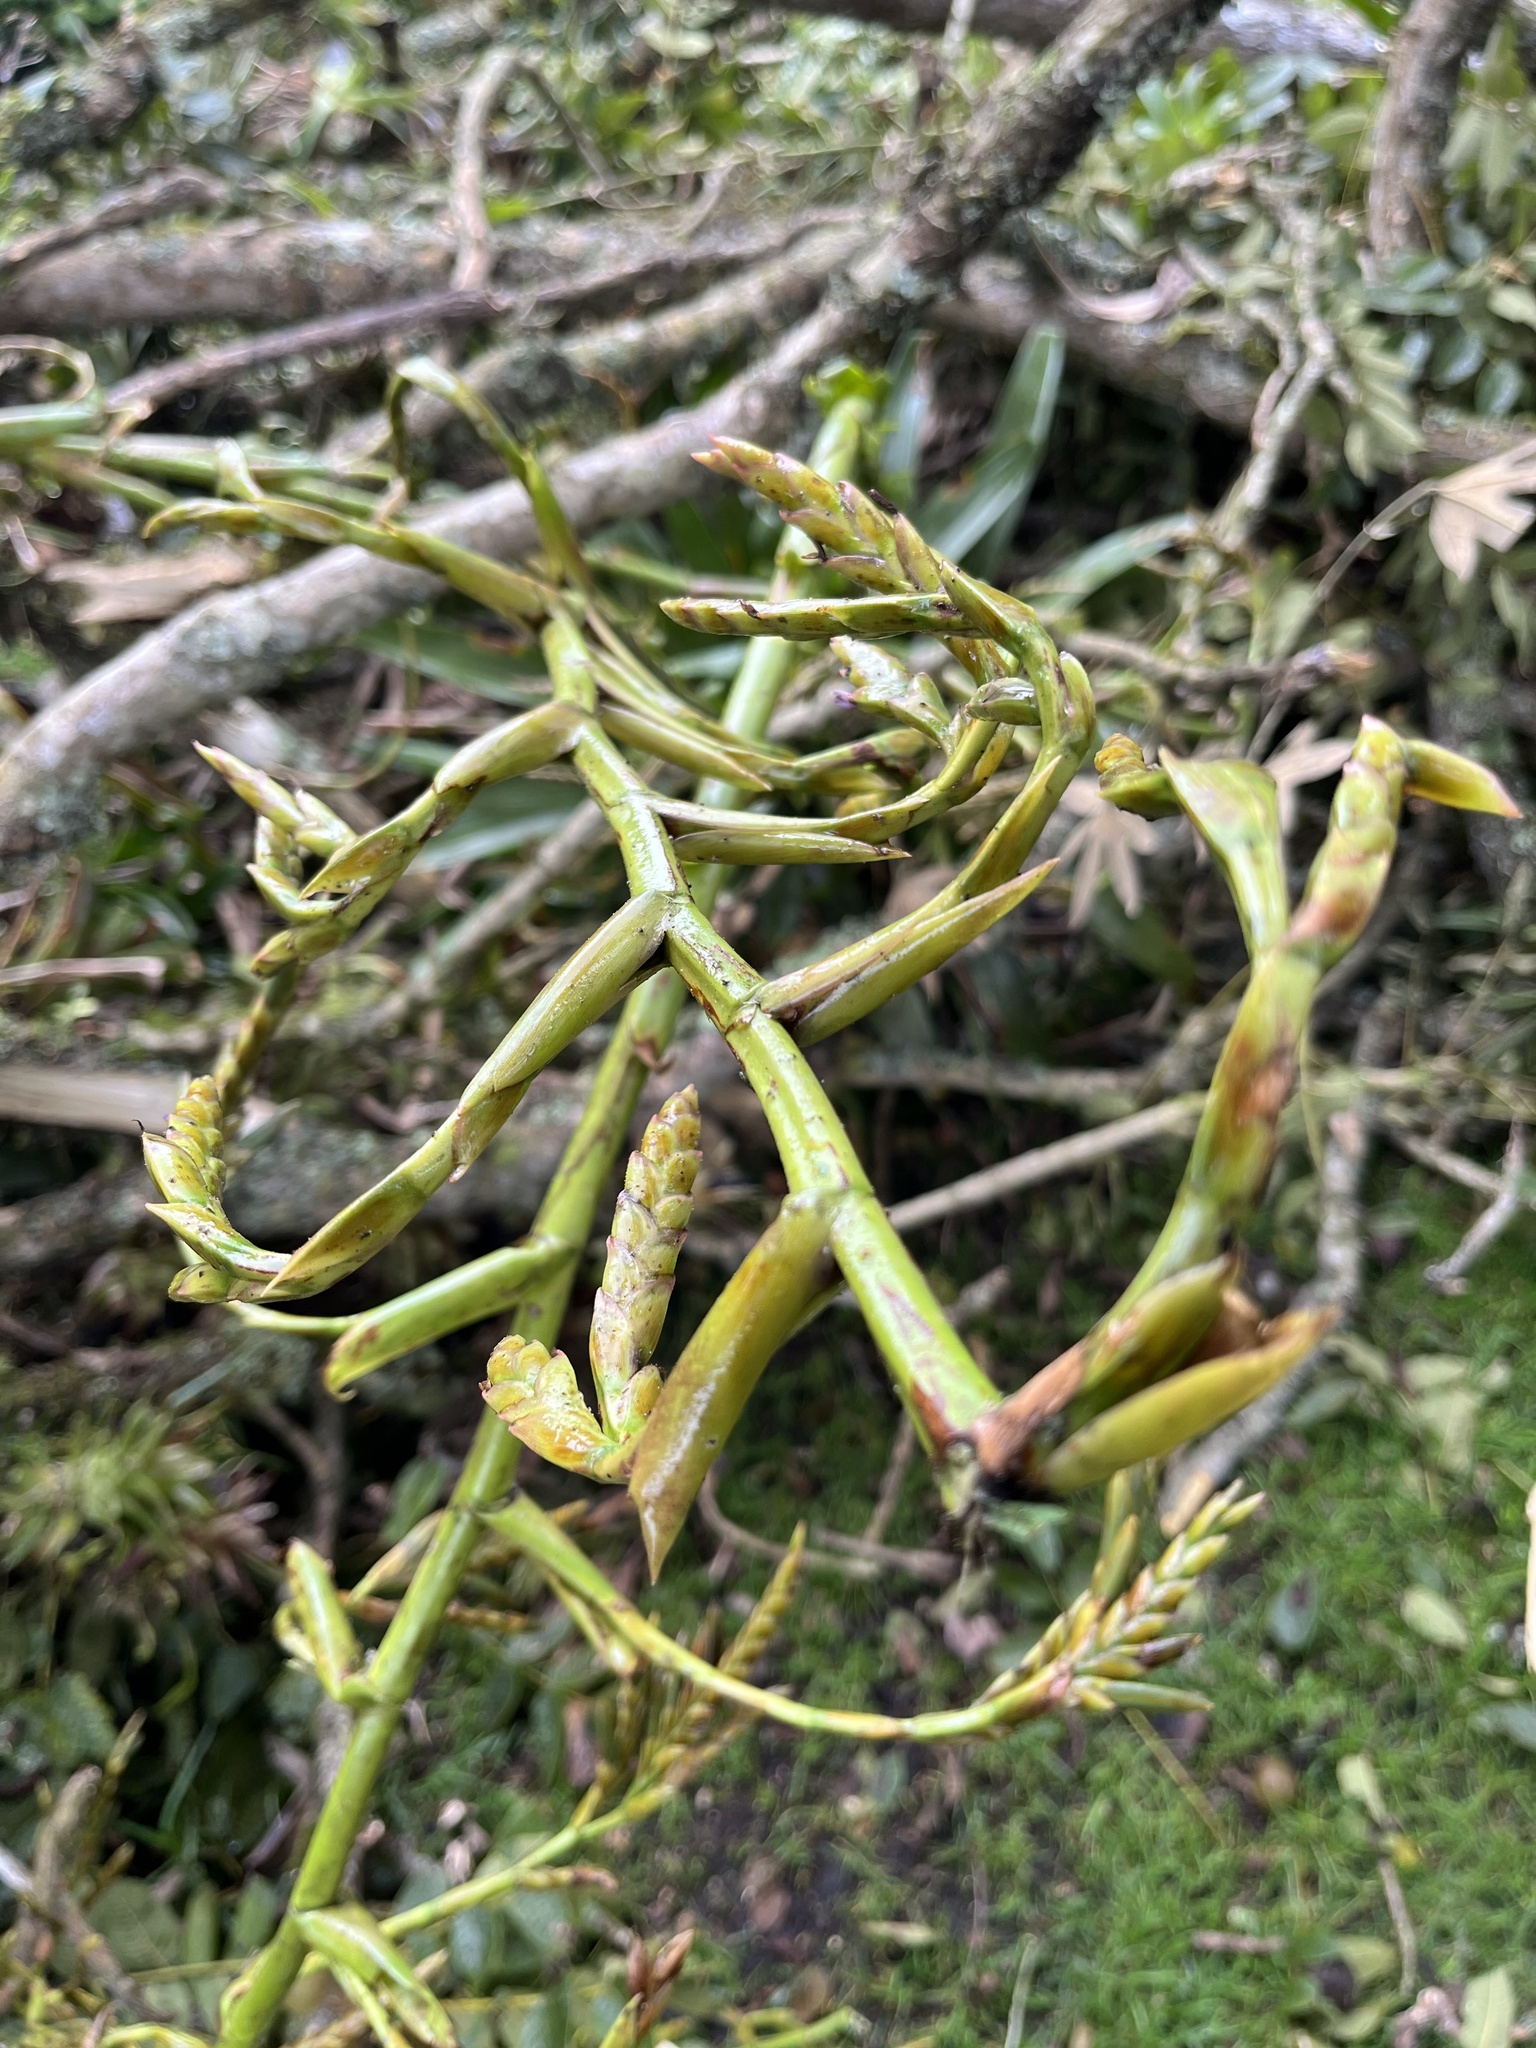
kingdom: Plantae
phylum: Tracheophyta
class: Liliopsida
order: Poales
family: Bromeliaceae
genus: Tillandsia
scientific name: Tillandsia denudata
